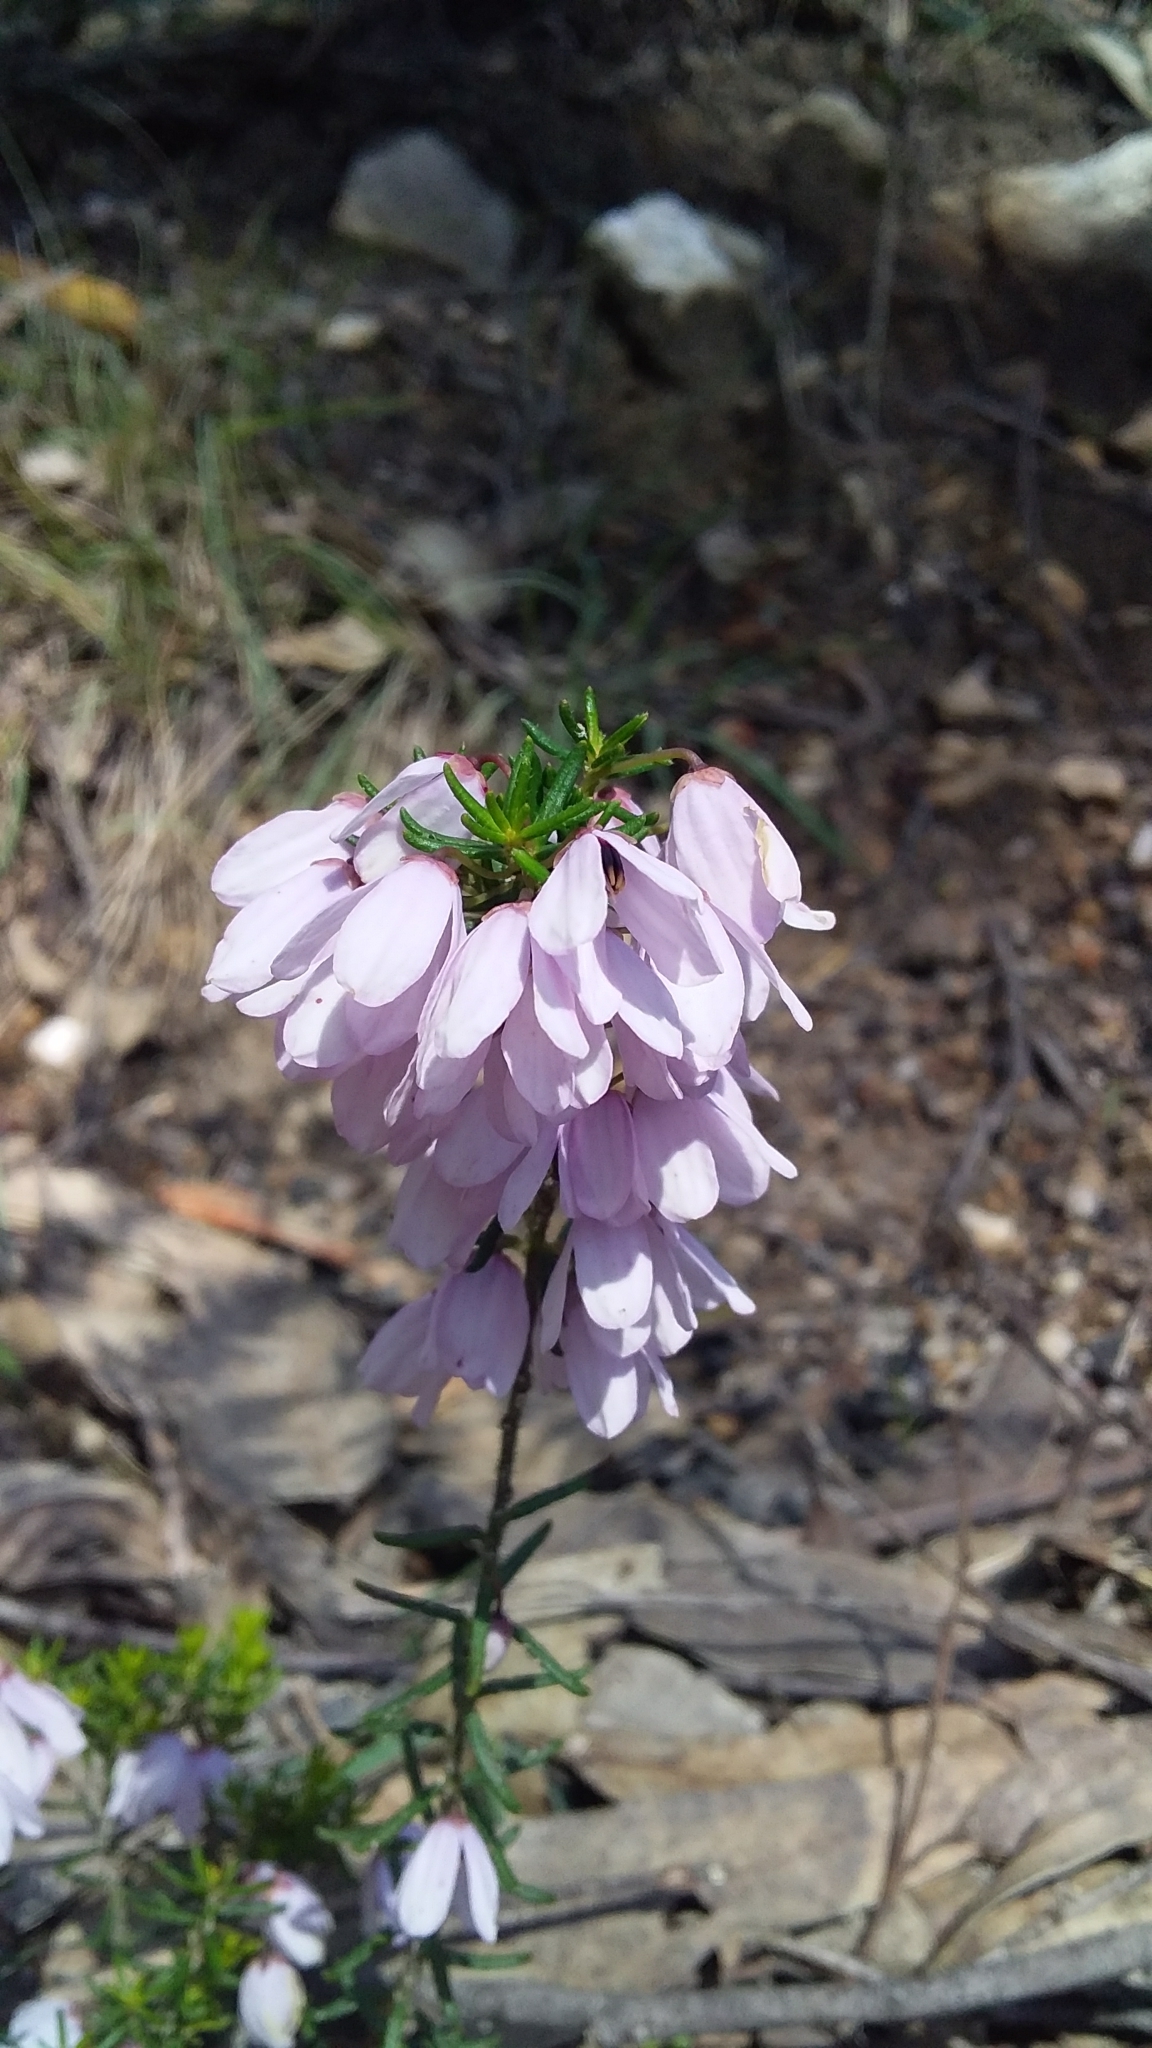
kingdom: Plantae
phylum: Tracheophyta
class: Magnoliopsida
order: Oxalidales
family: Elaeocarpaceae
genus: Tetratheca
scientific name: Tetratheca pilosa
